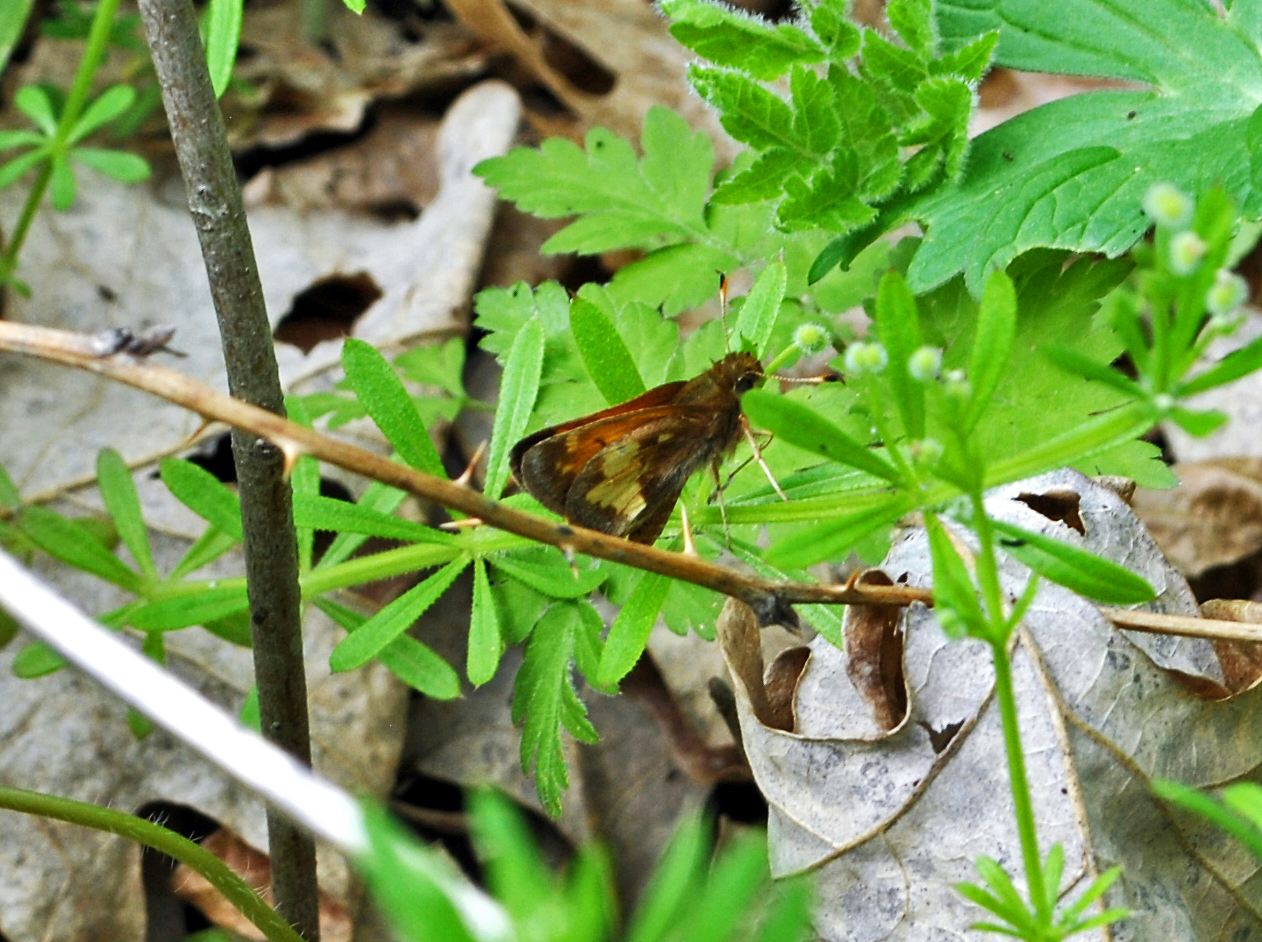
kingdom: Animalia
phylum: Arthropoda
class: Insecta
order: Lepidoptera
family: Hesperiidae
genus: Lon
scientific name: Lon hobomok
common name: Hobomok skipper
